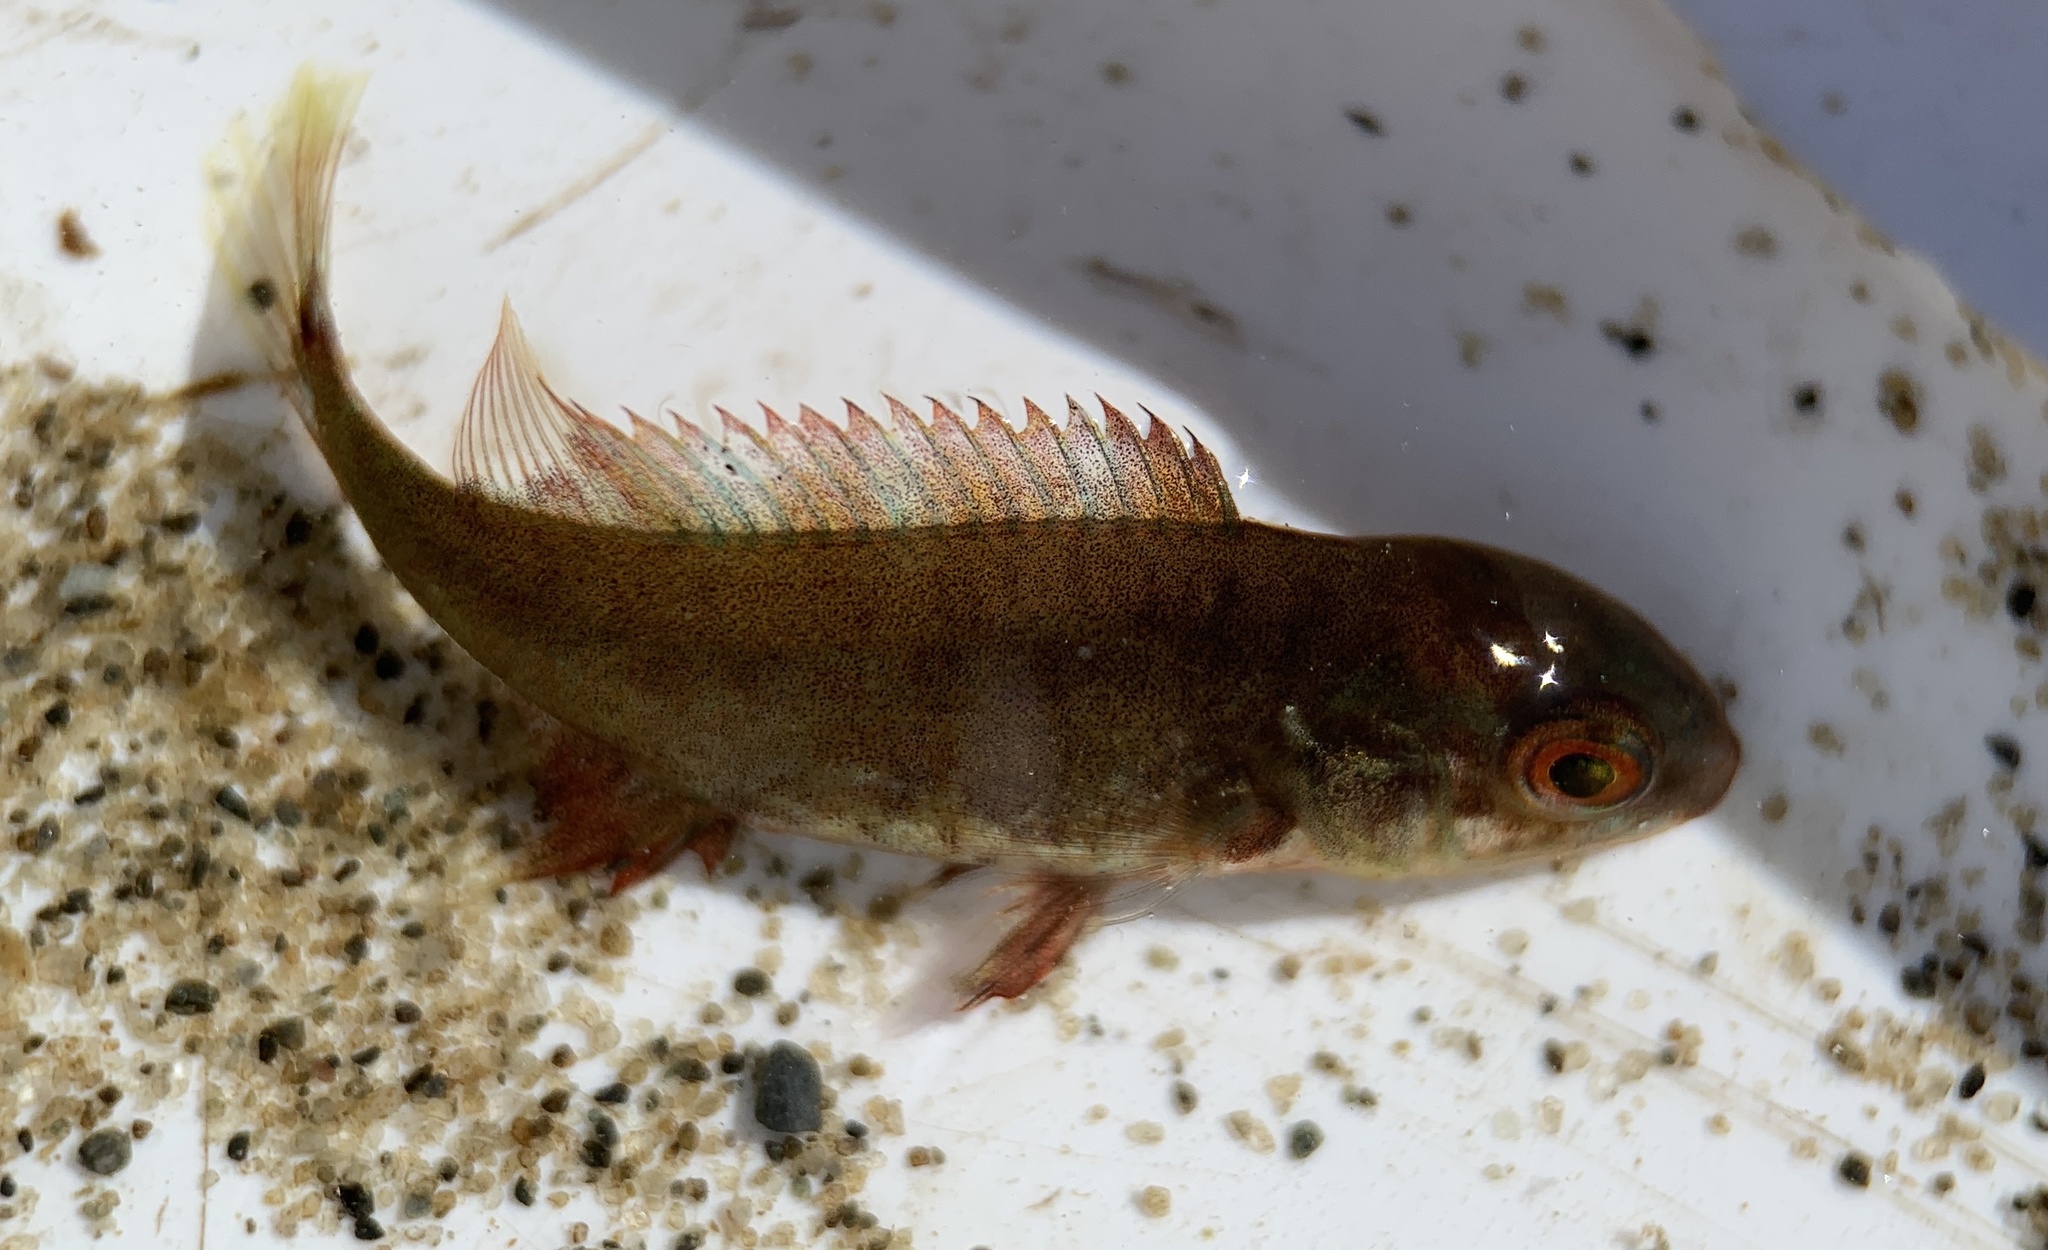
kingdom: Animalia
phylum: Chordata
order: Perciformes
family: Labridae
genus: Tautoga
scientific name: Tautoga onitis
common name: Tautog
